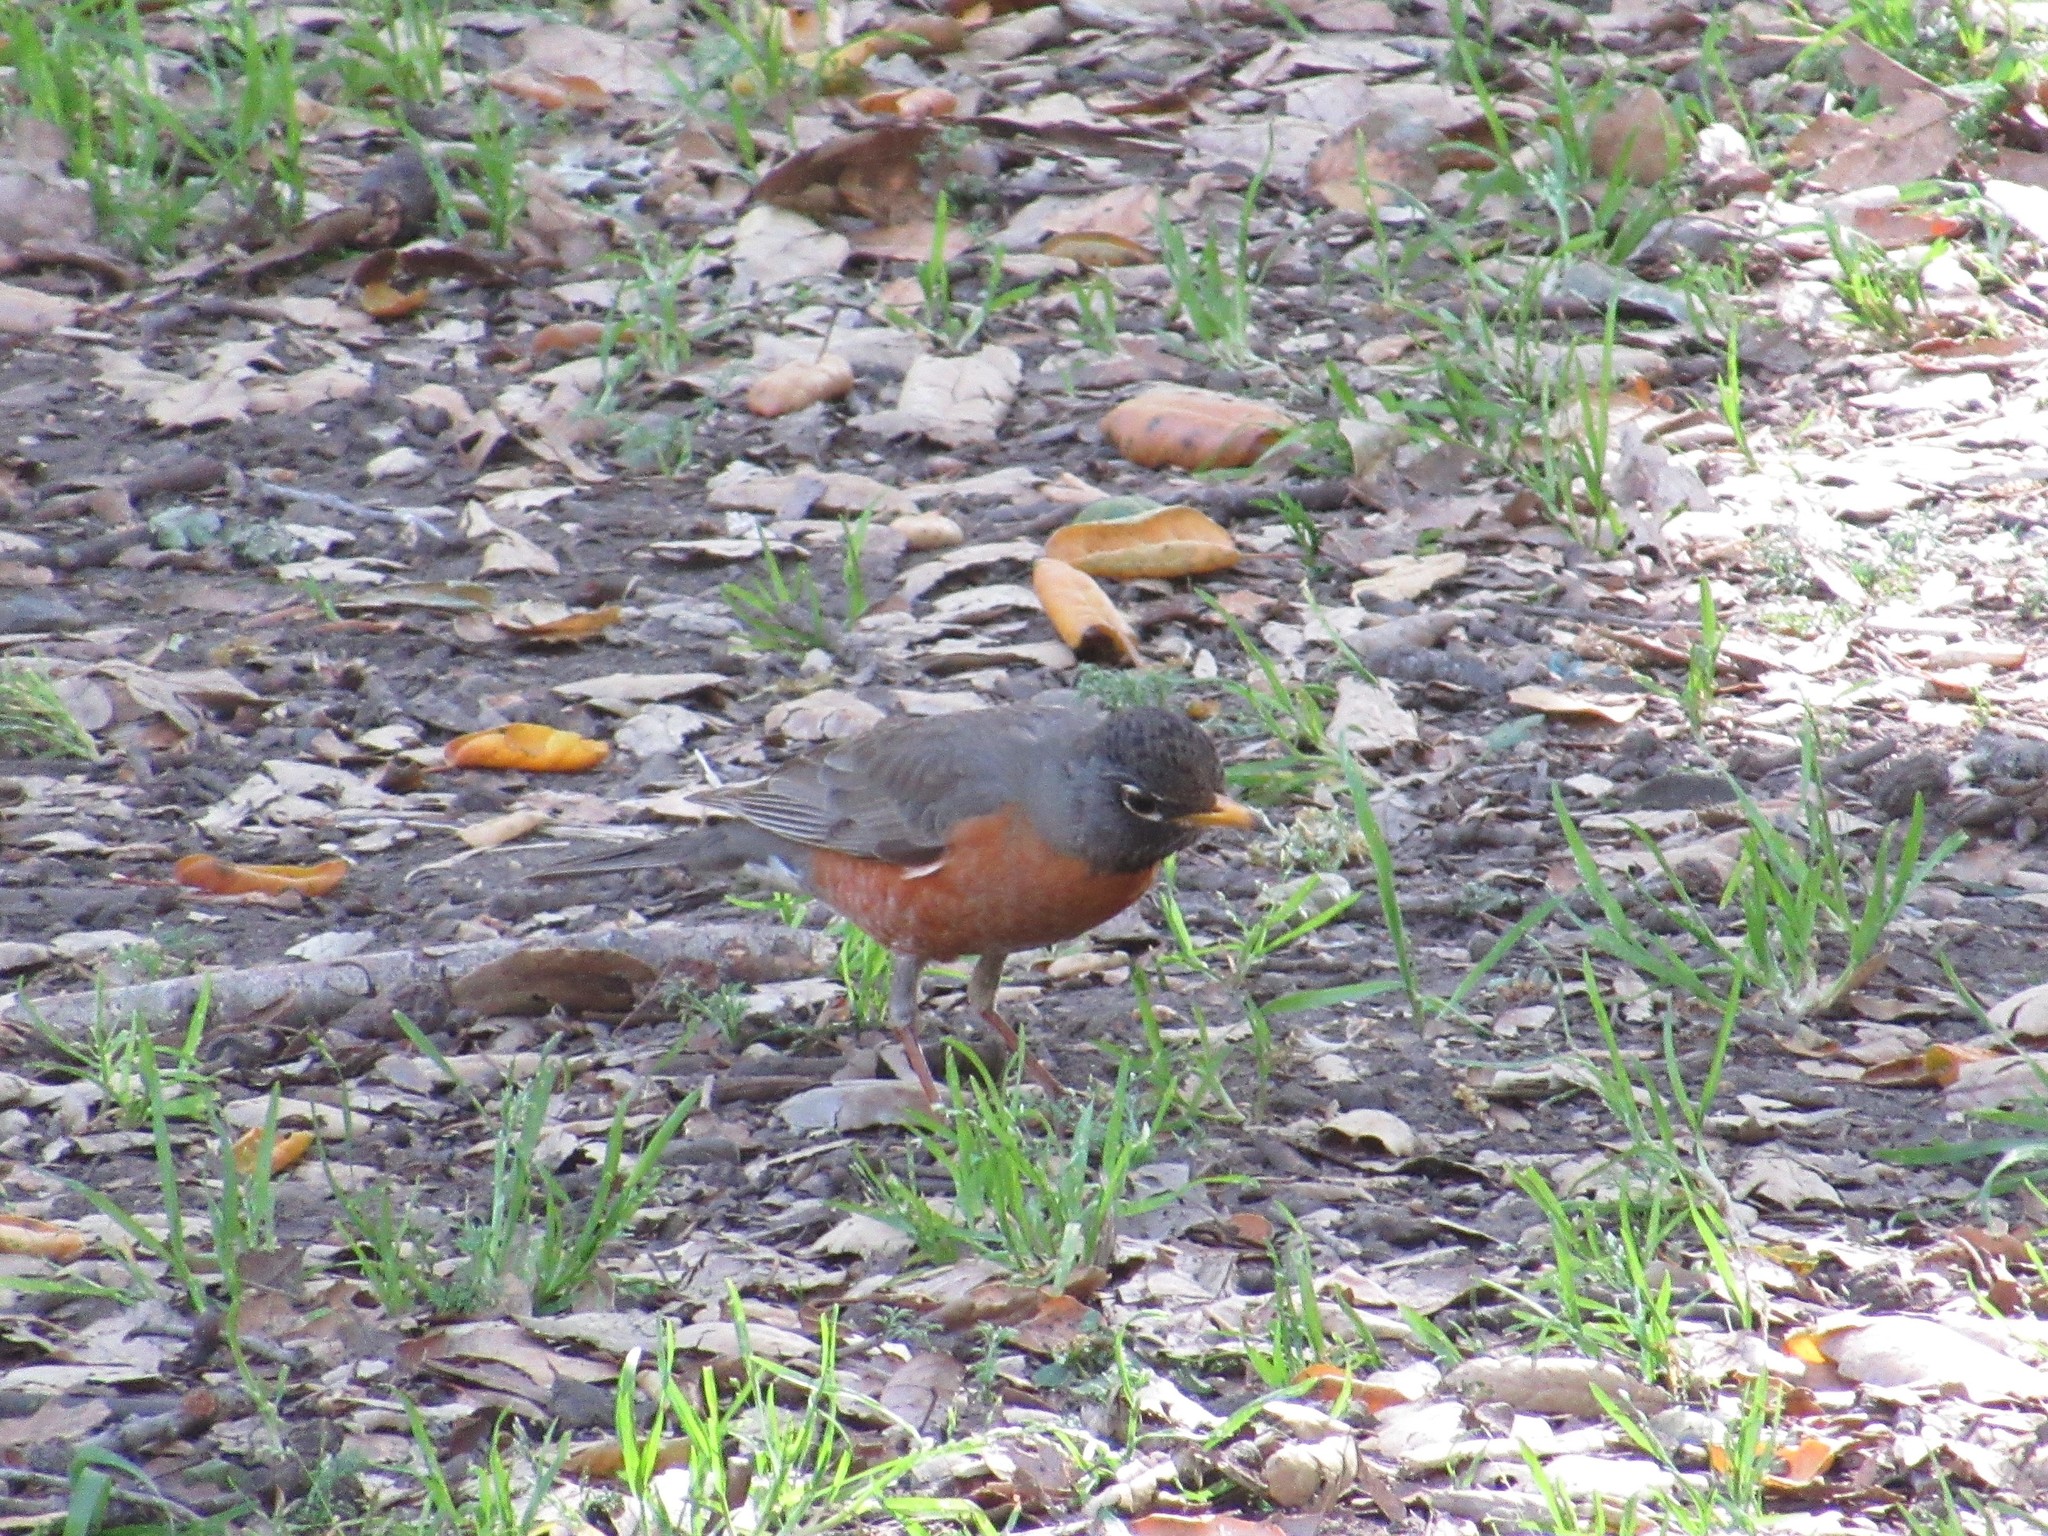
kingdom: Animalia
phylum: Chordata
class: Aves
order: Passeriformes
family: Turdidae
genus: Turdus
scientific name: Turdus migratorius
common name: American robin
